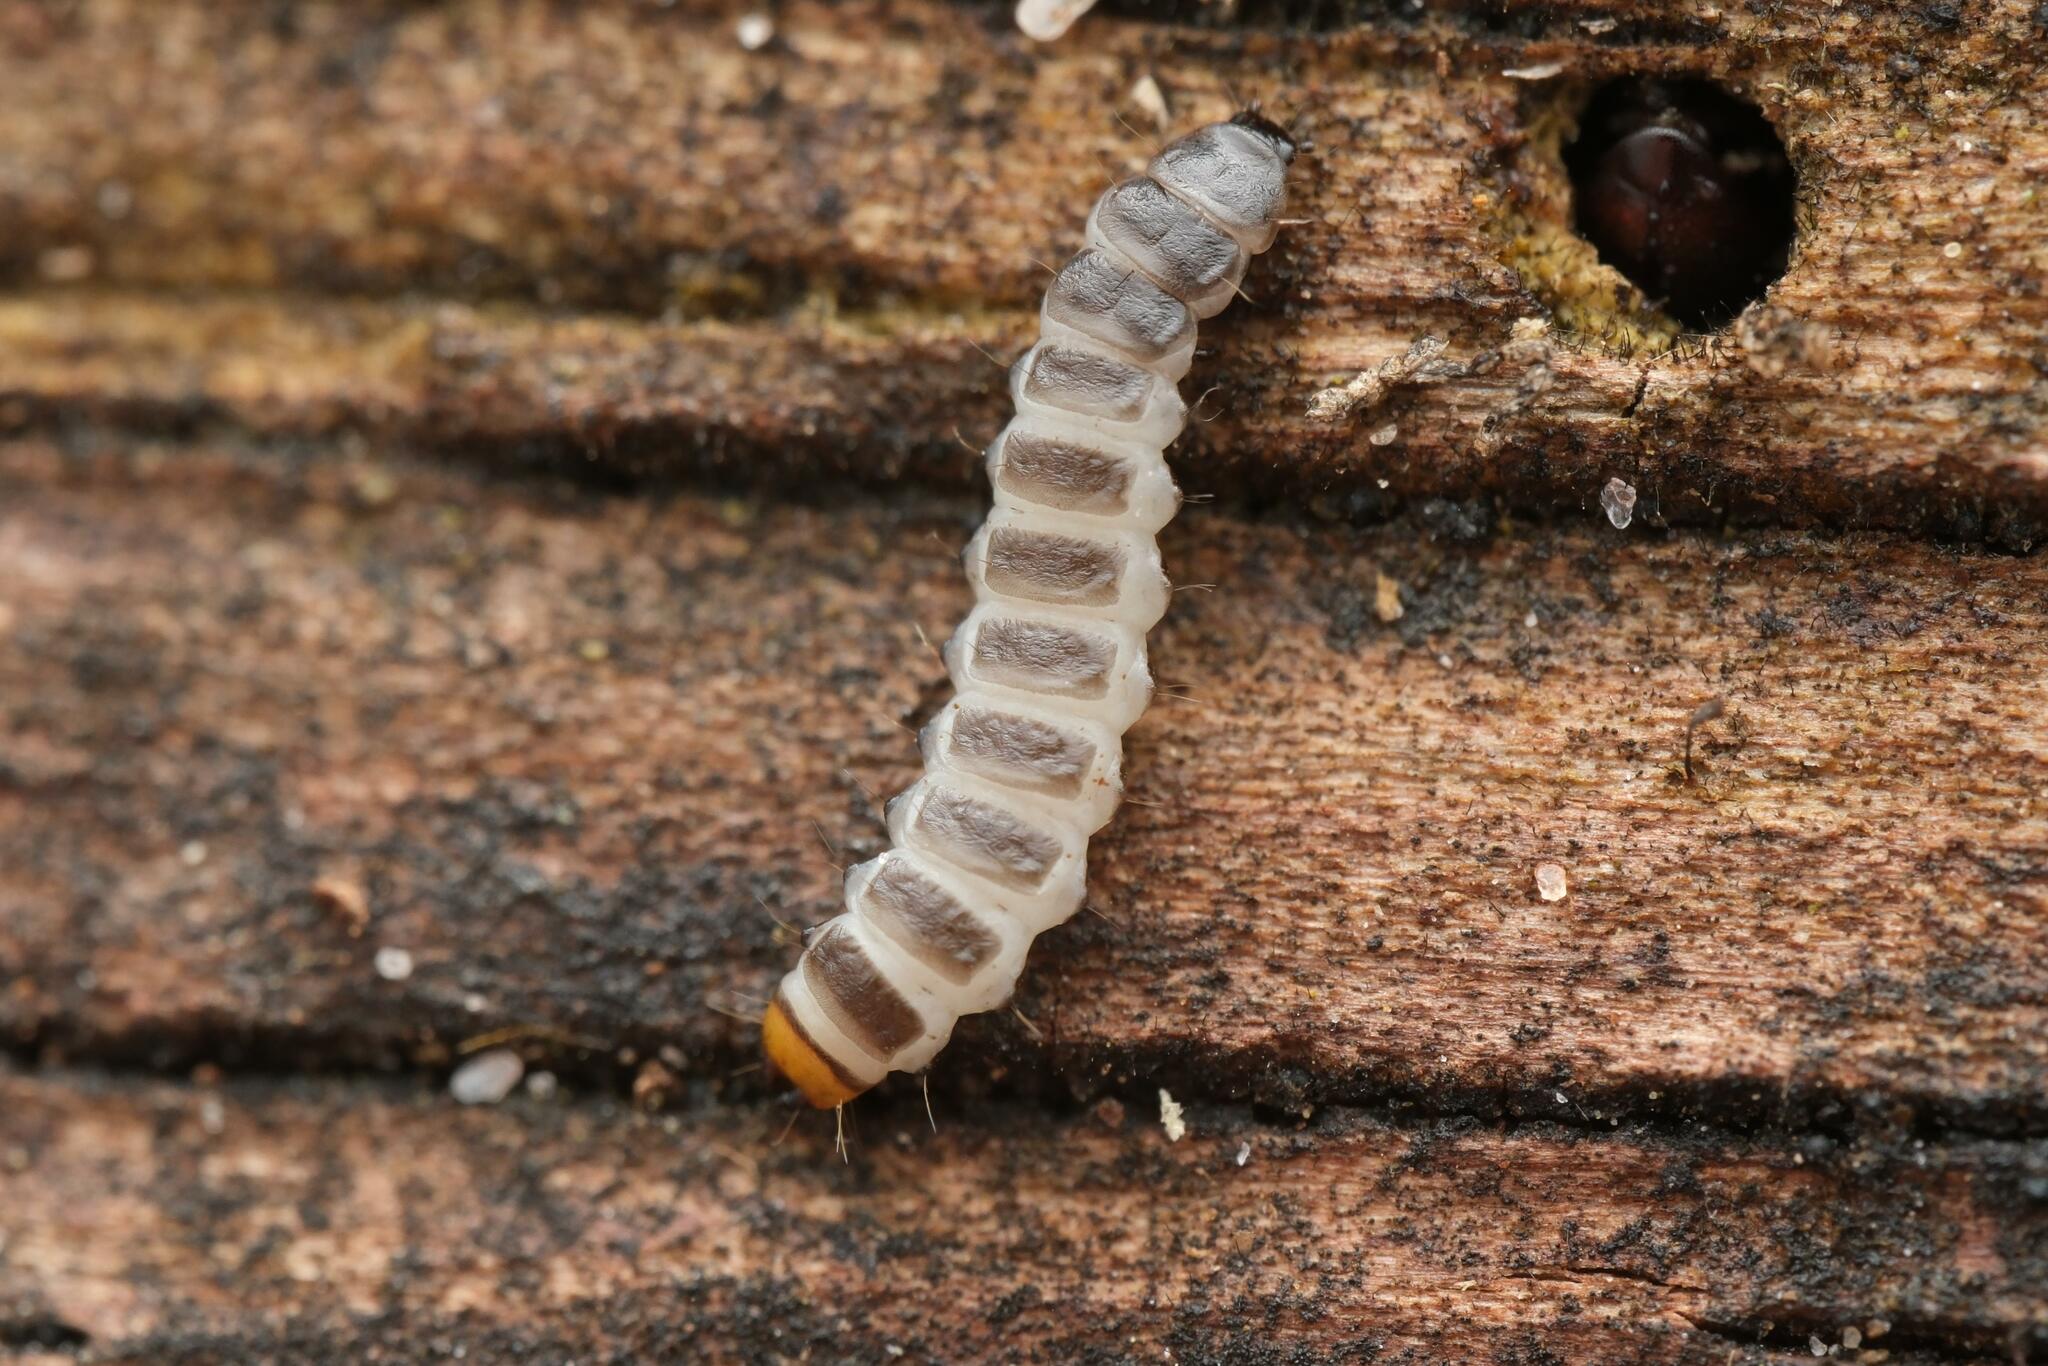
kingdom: Animalia
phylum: Arthropoda
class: Insecta
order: Coleoptera
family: Lycidae
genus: Lygistopterus
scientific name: Lygistopterus sanguineus
